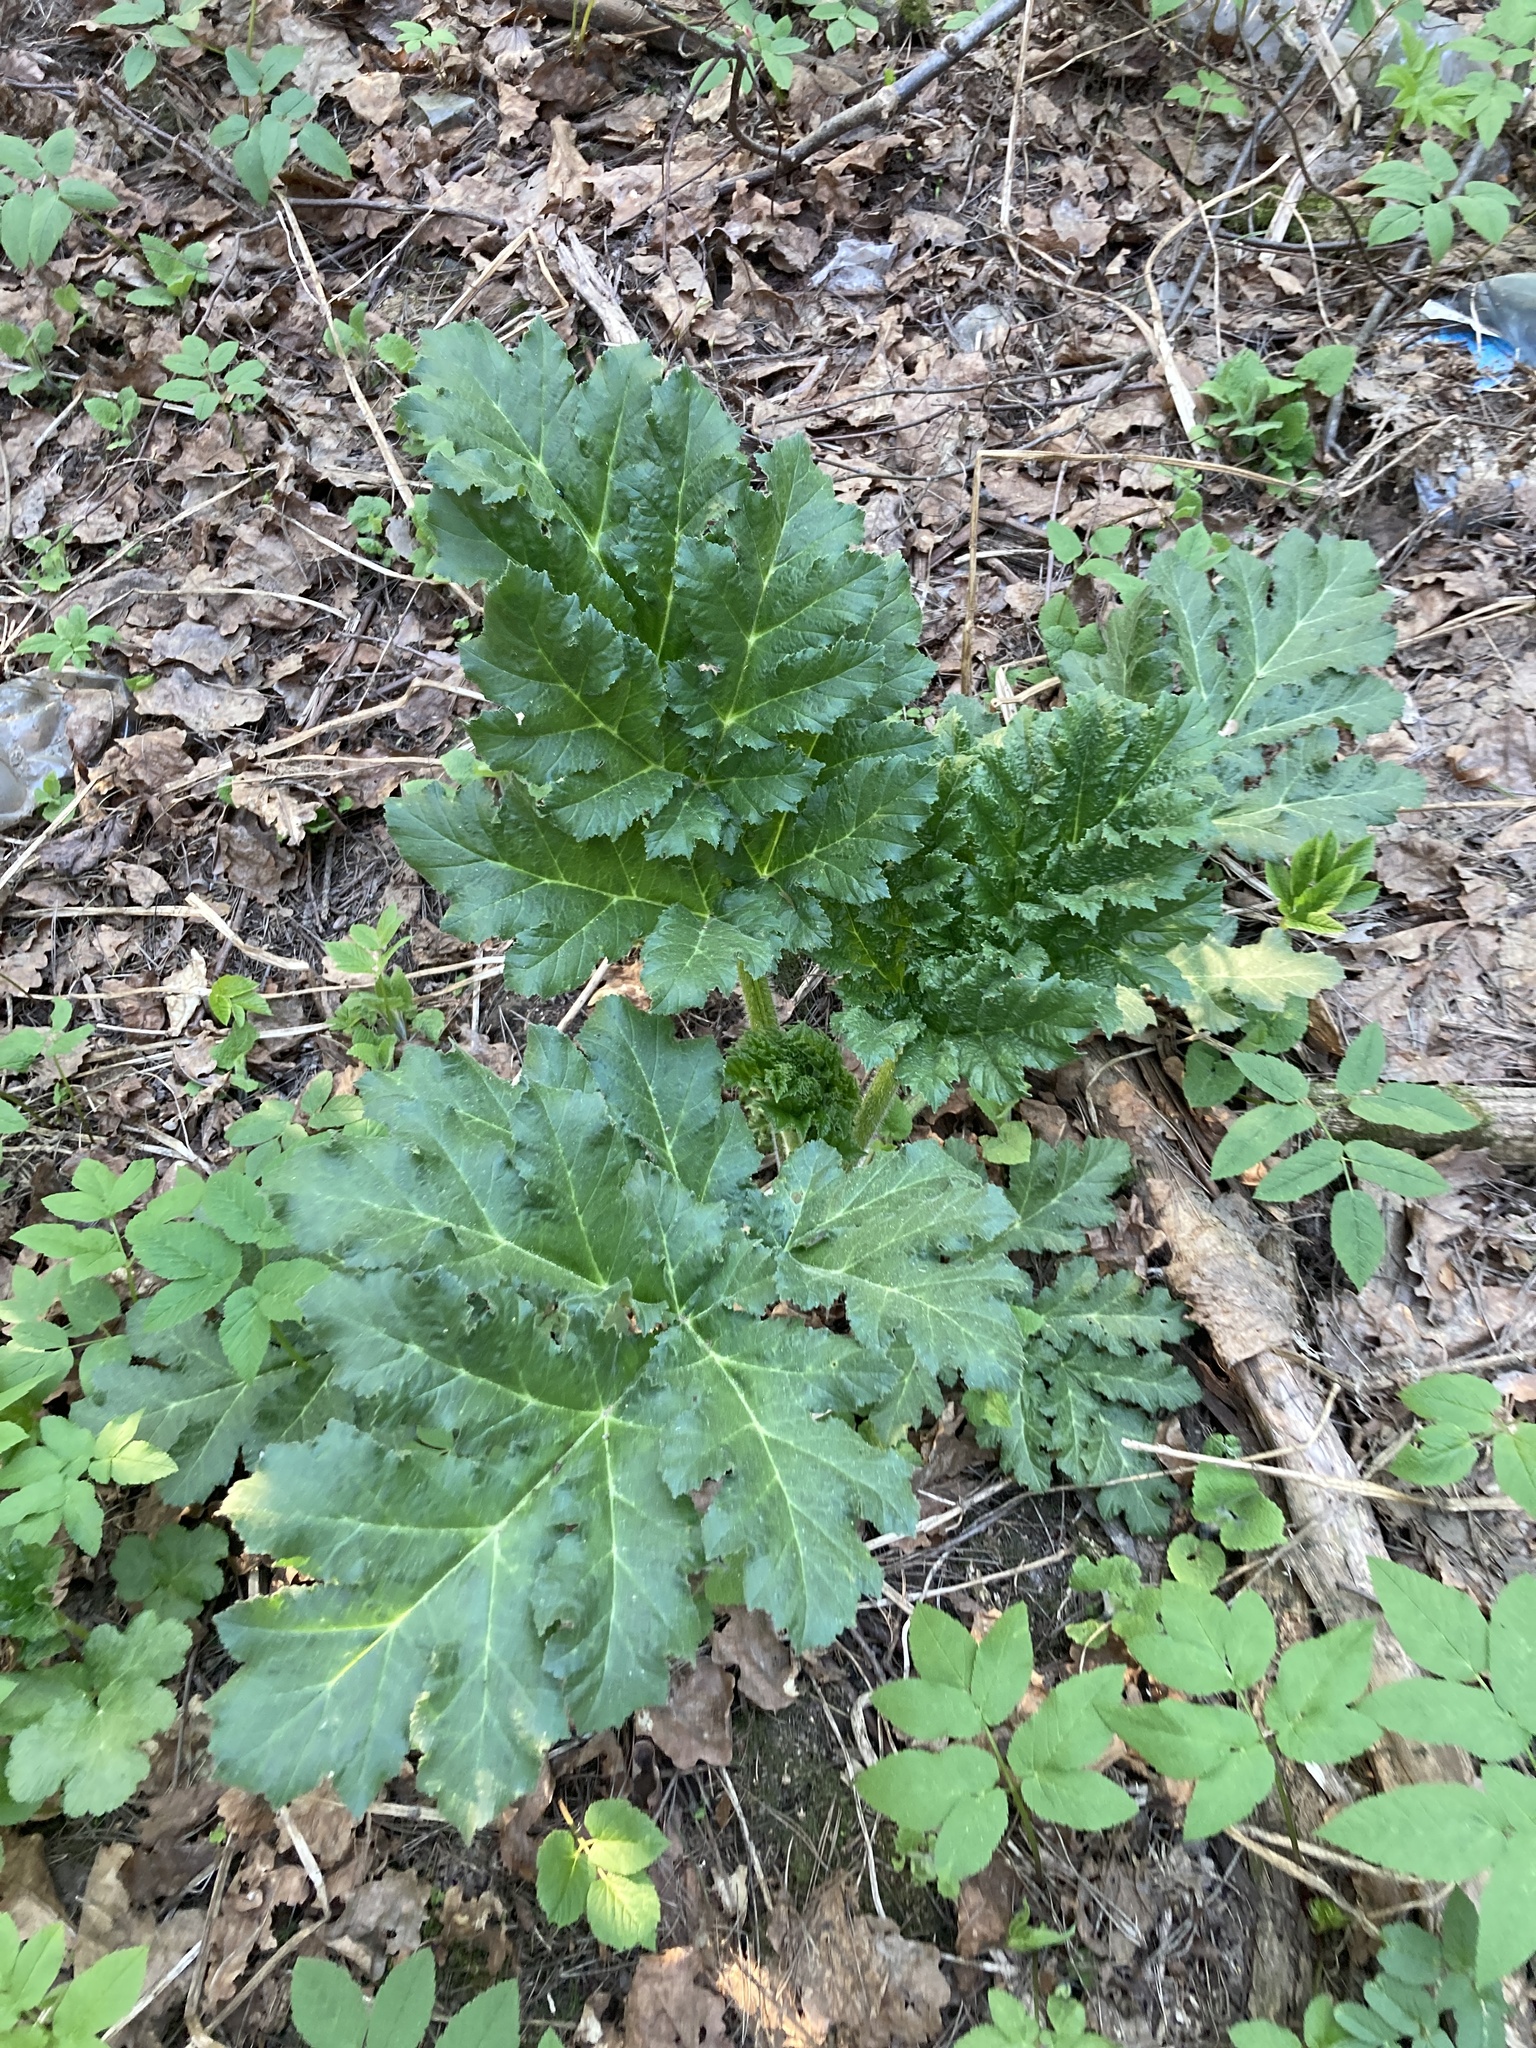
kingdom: Plantae
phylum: Tracheophyta
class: Magnoliopsida
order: Apiales
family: Apiaceae
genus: Heracleum
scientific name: Heracleum sosnowskyi
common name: Sosnowsky's hogweed
